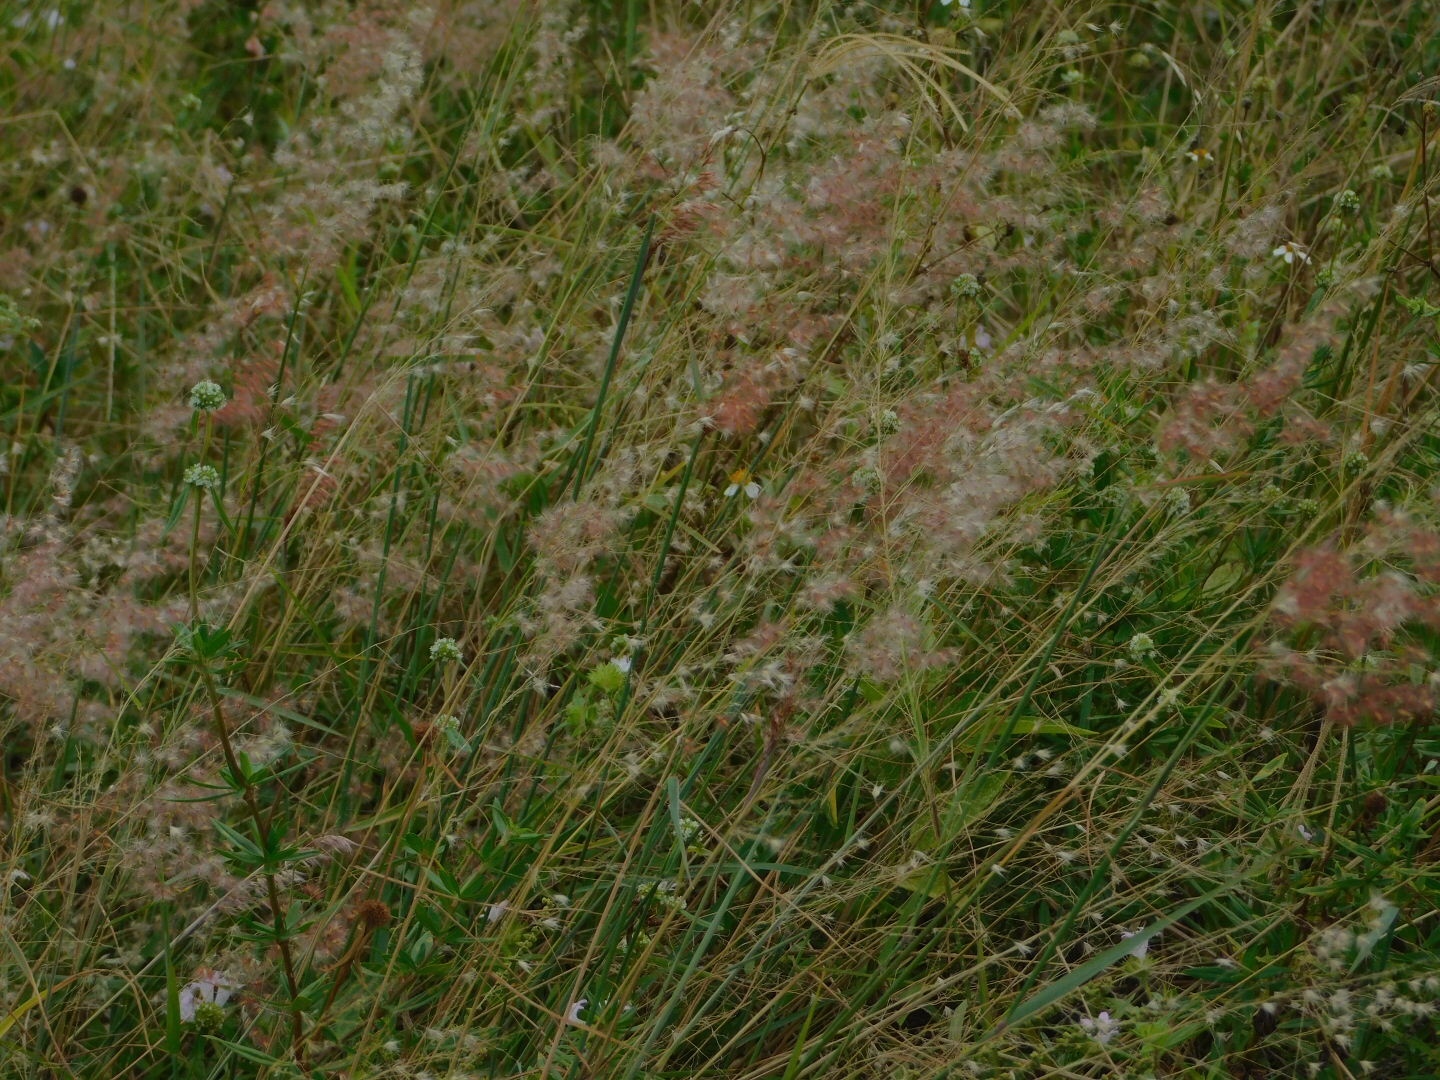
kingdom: Plantae
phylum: Tracheophyta
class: Liliopsida
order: Poales
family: Poaceae
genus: Melinis
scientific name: Melinis repens
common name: Rose natal grass
